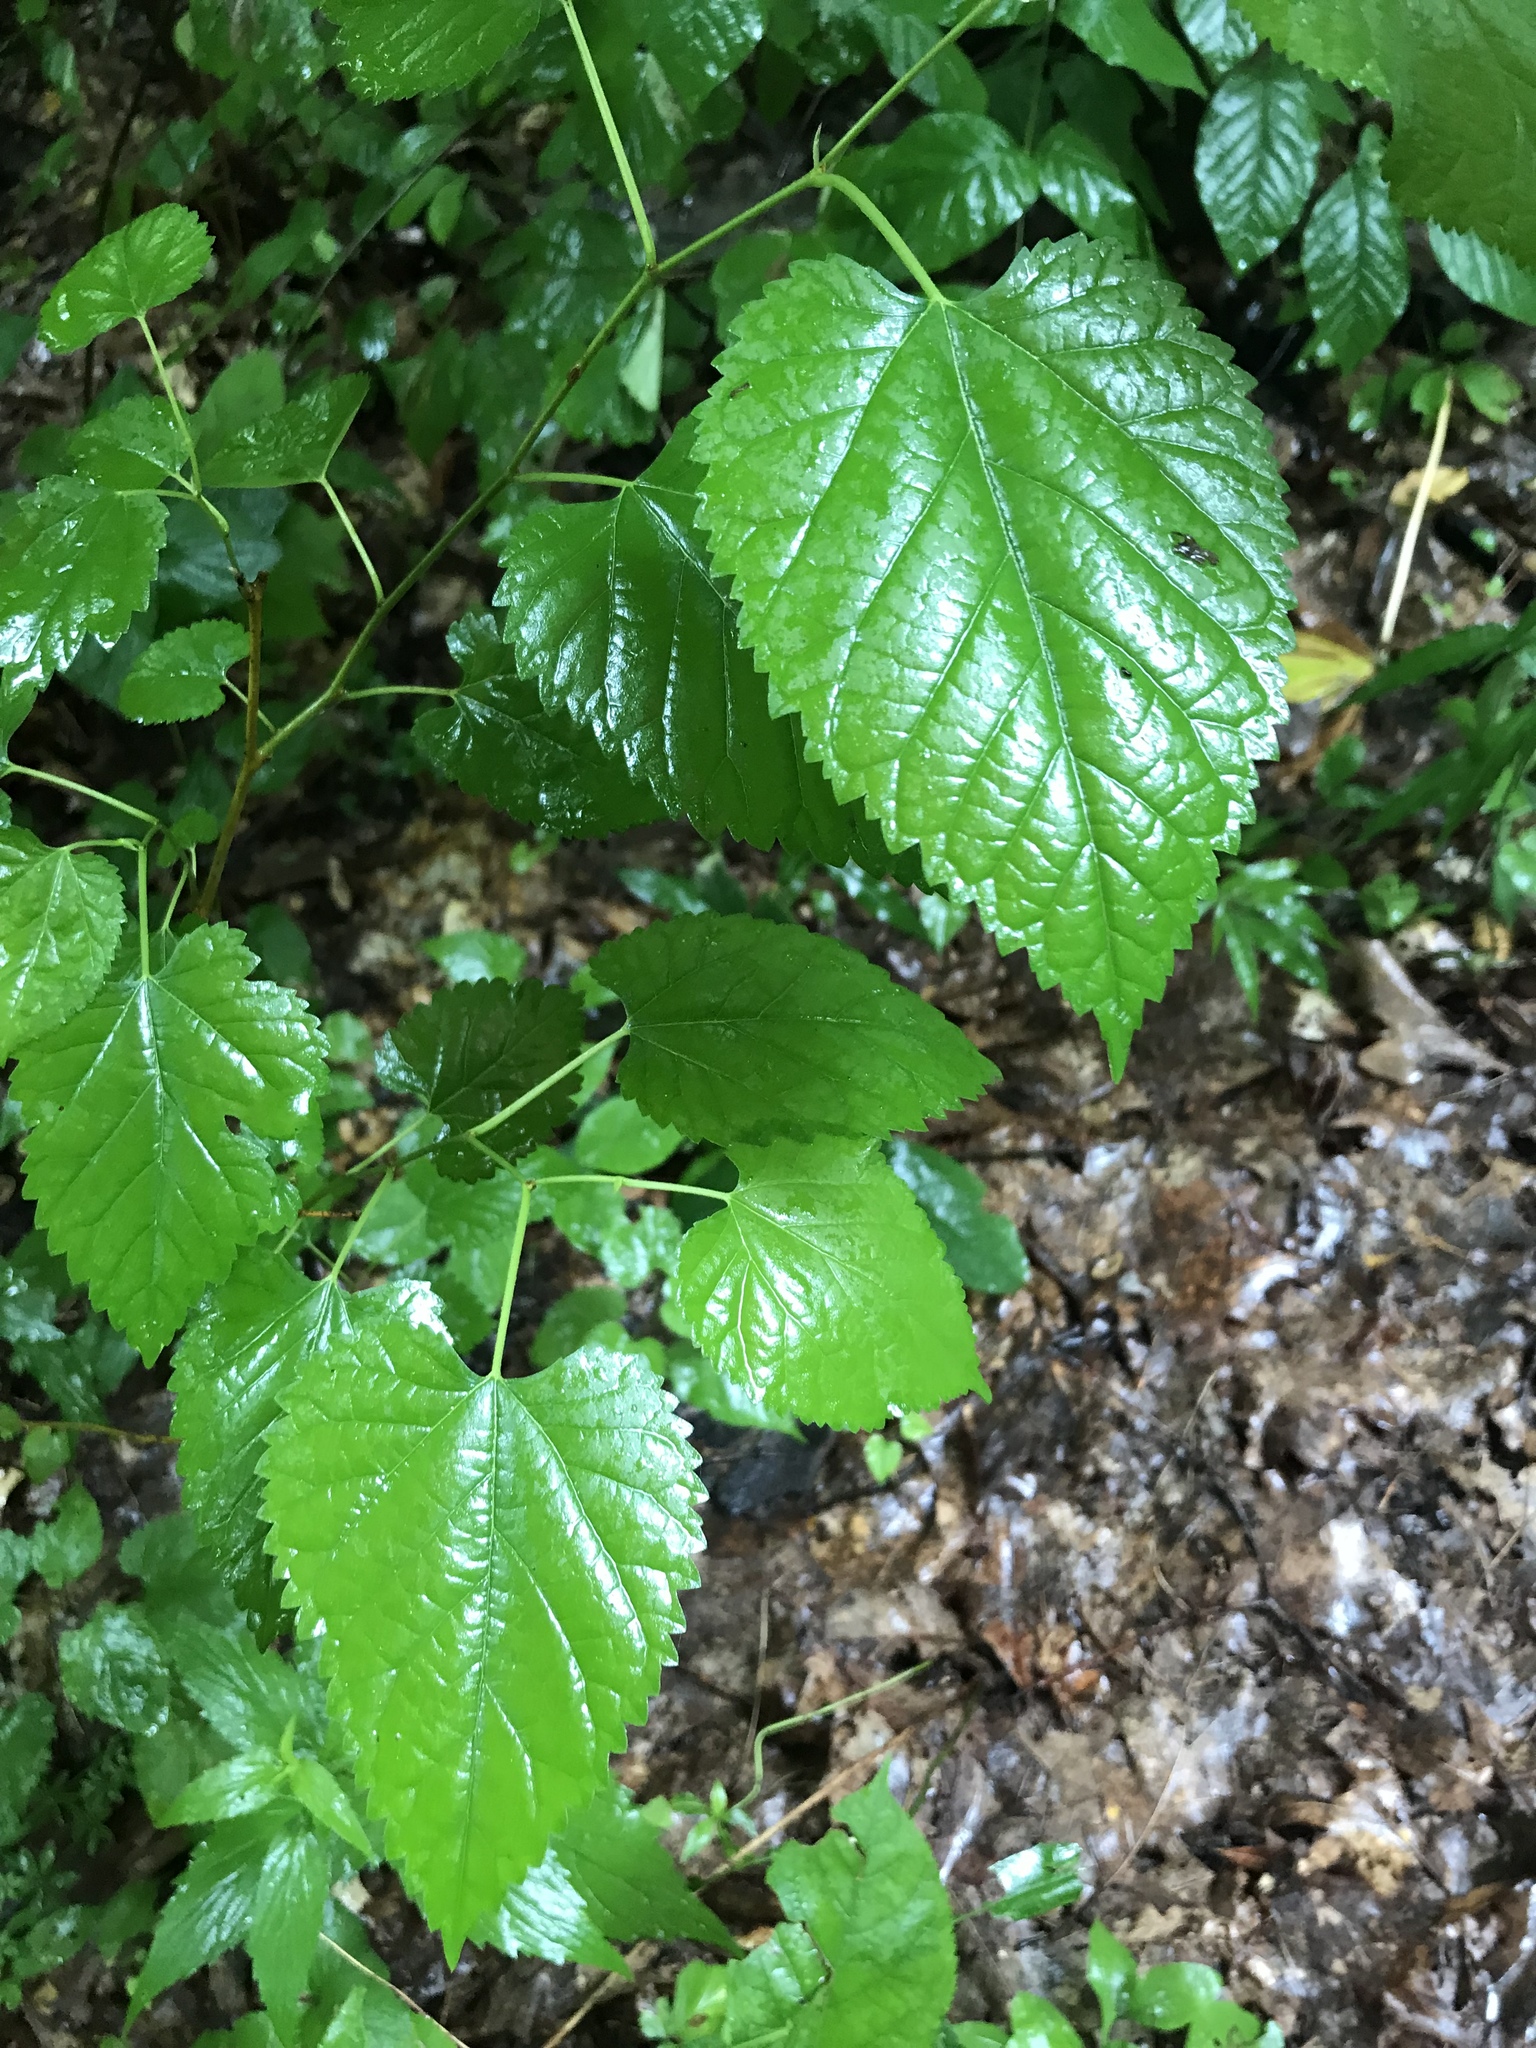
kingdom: Plantae
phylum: Tracheophyta
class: Magnoliopsida
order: Rosales
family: Moraceae
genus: Morus
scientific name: Morus alba
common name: White mulberry
